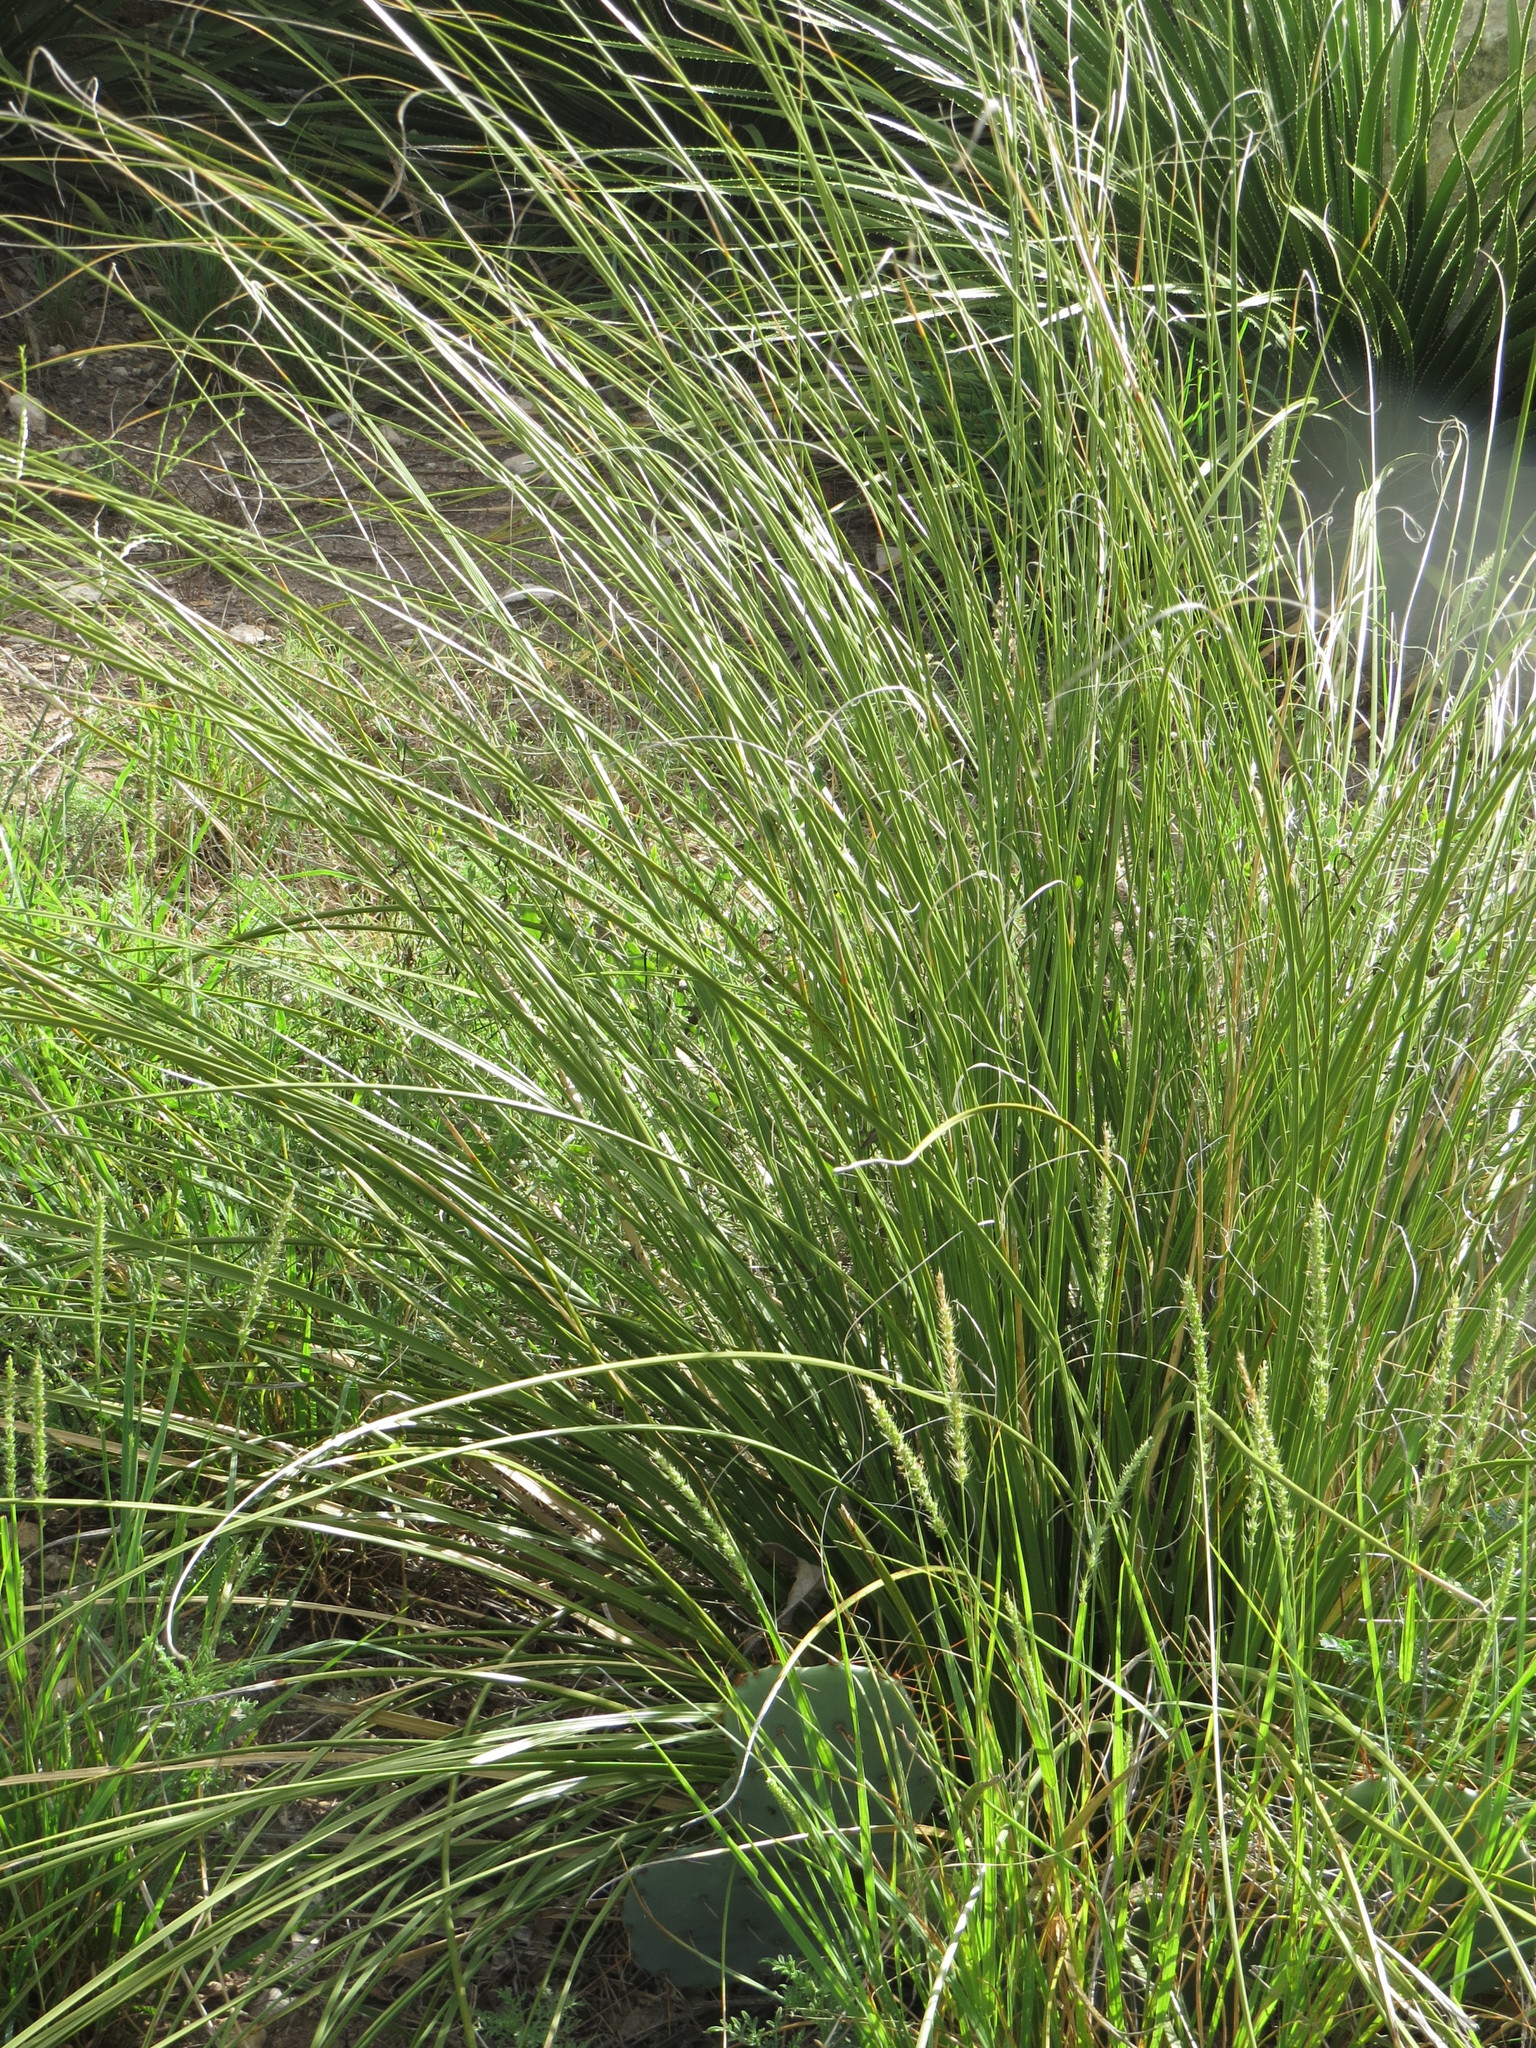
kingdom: Plantae
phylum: Tracheophyta
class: Liliopsida
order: Asparagales
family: Asparagaceae
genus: Nolina
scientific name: Nolina texana
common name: Texas sacahuiste
